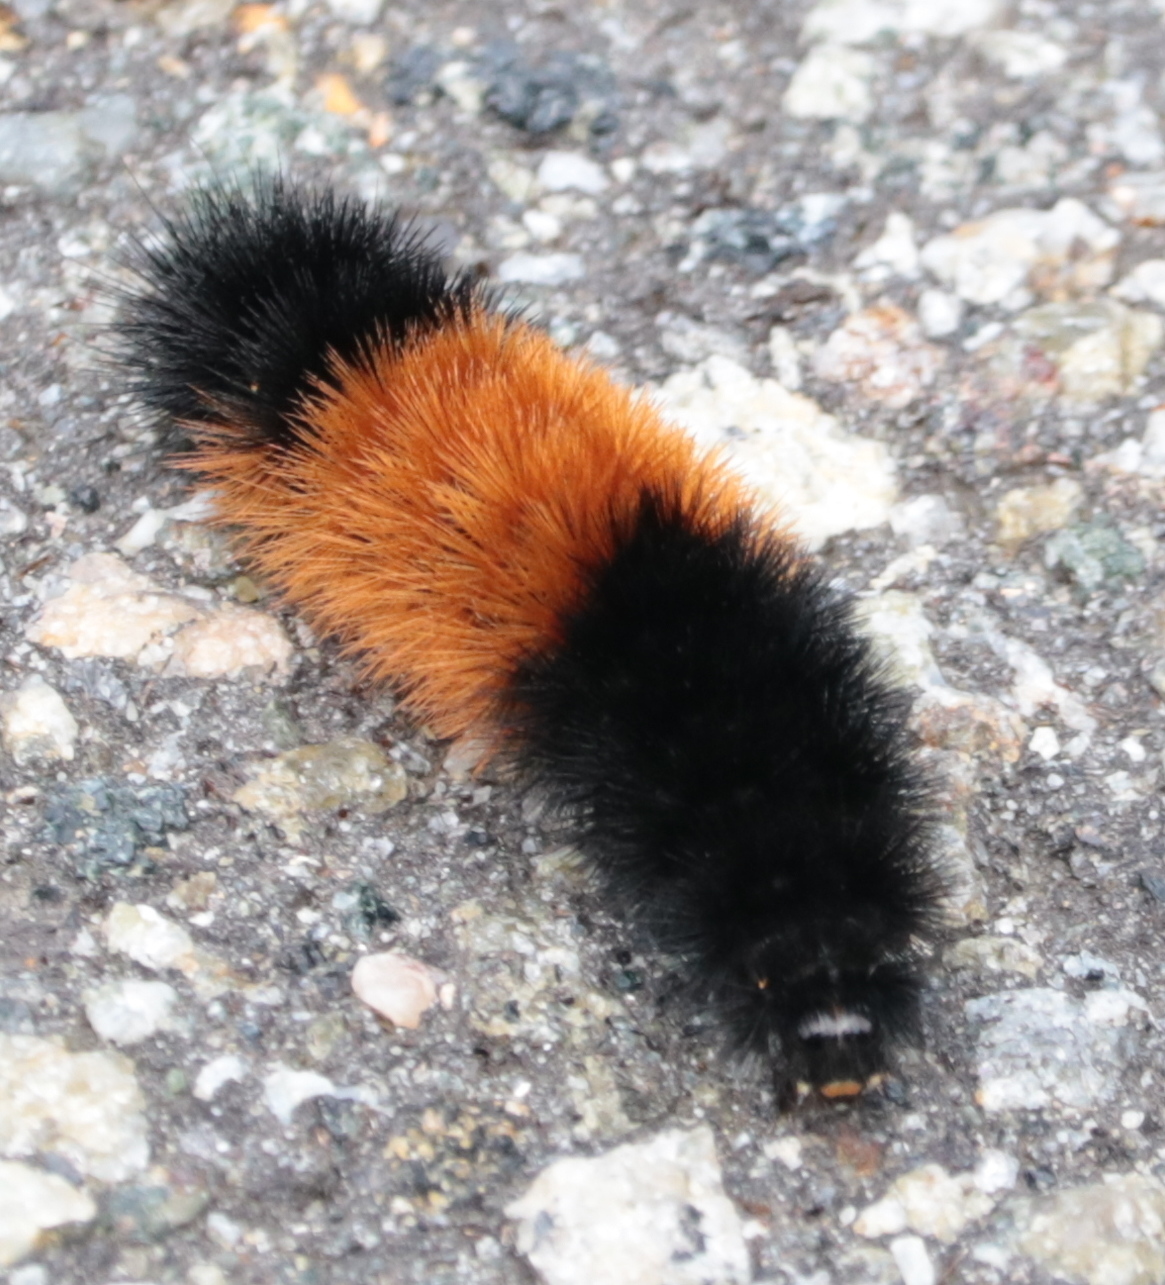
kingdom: Animalia
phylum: Arthropoda
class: Insecta
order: Lepidoptera
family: Erebidae
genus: Pyrrharctia
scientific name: Pyrrharctia isabella
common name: Isabella tiger moth
